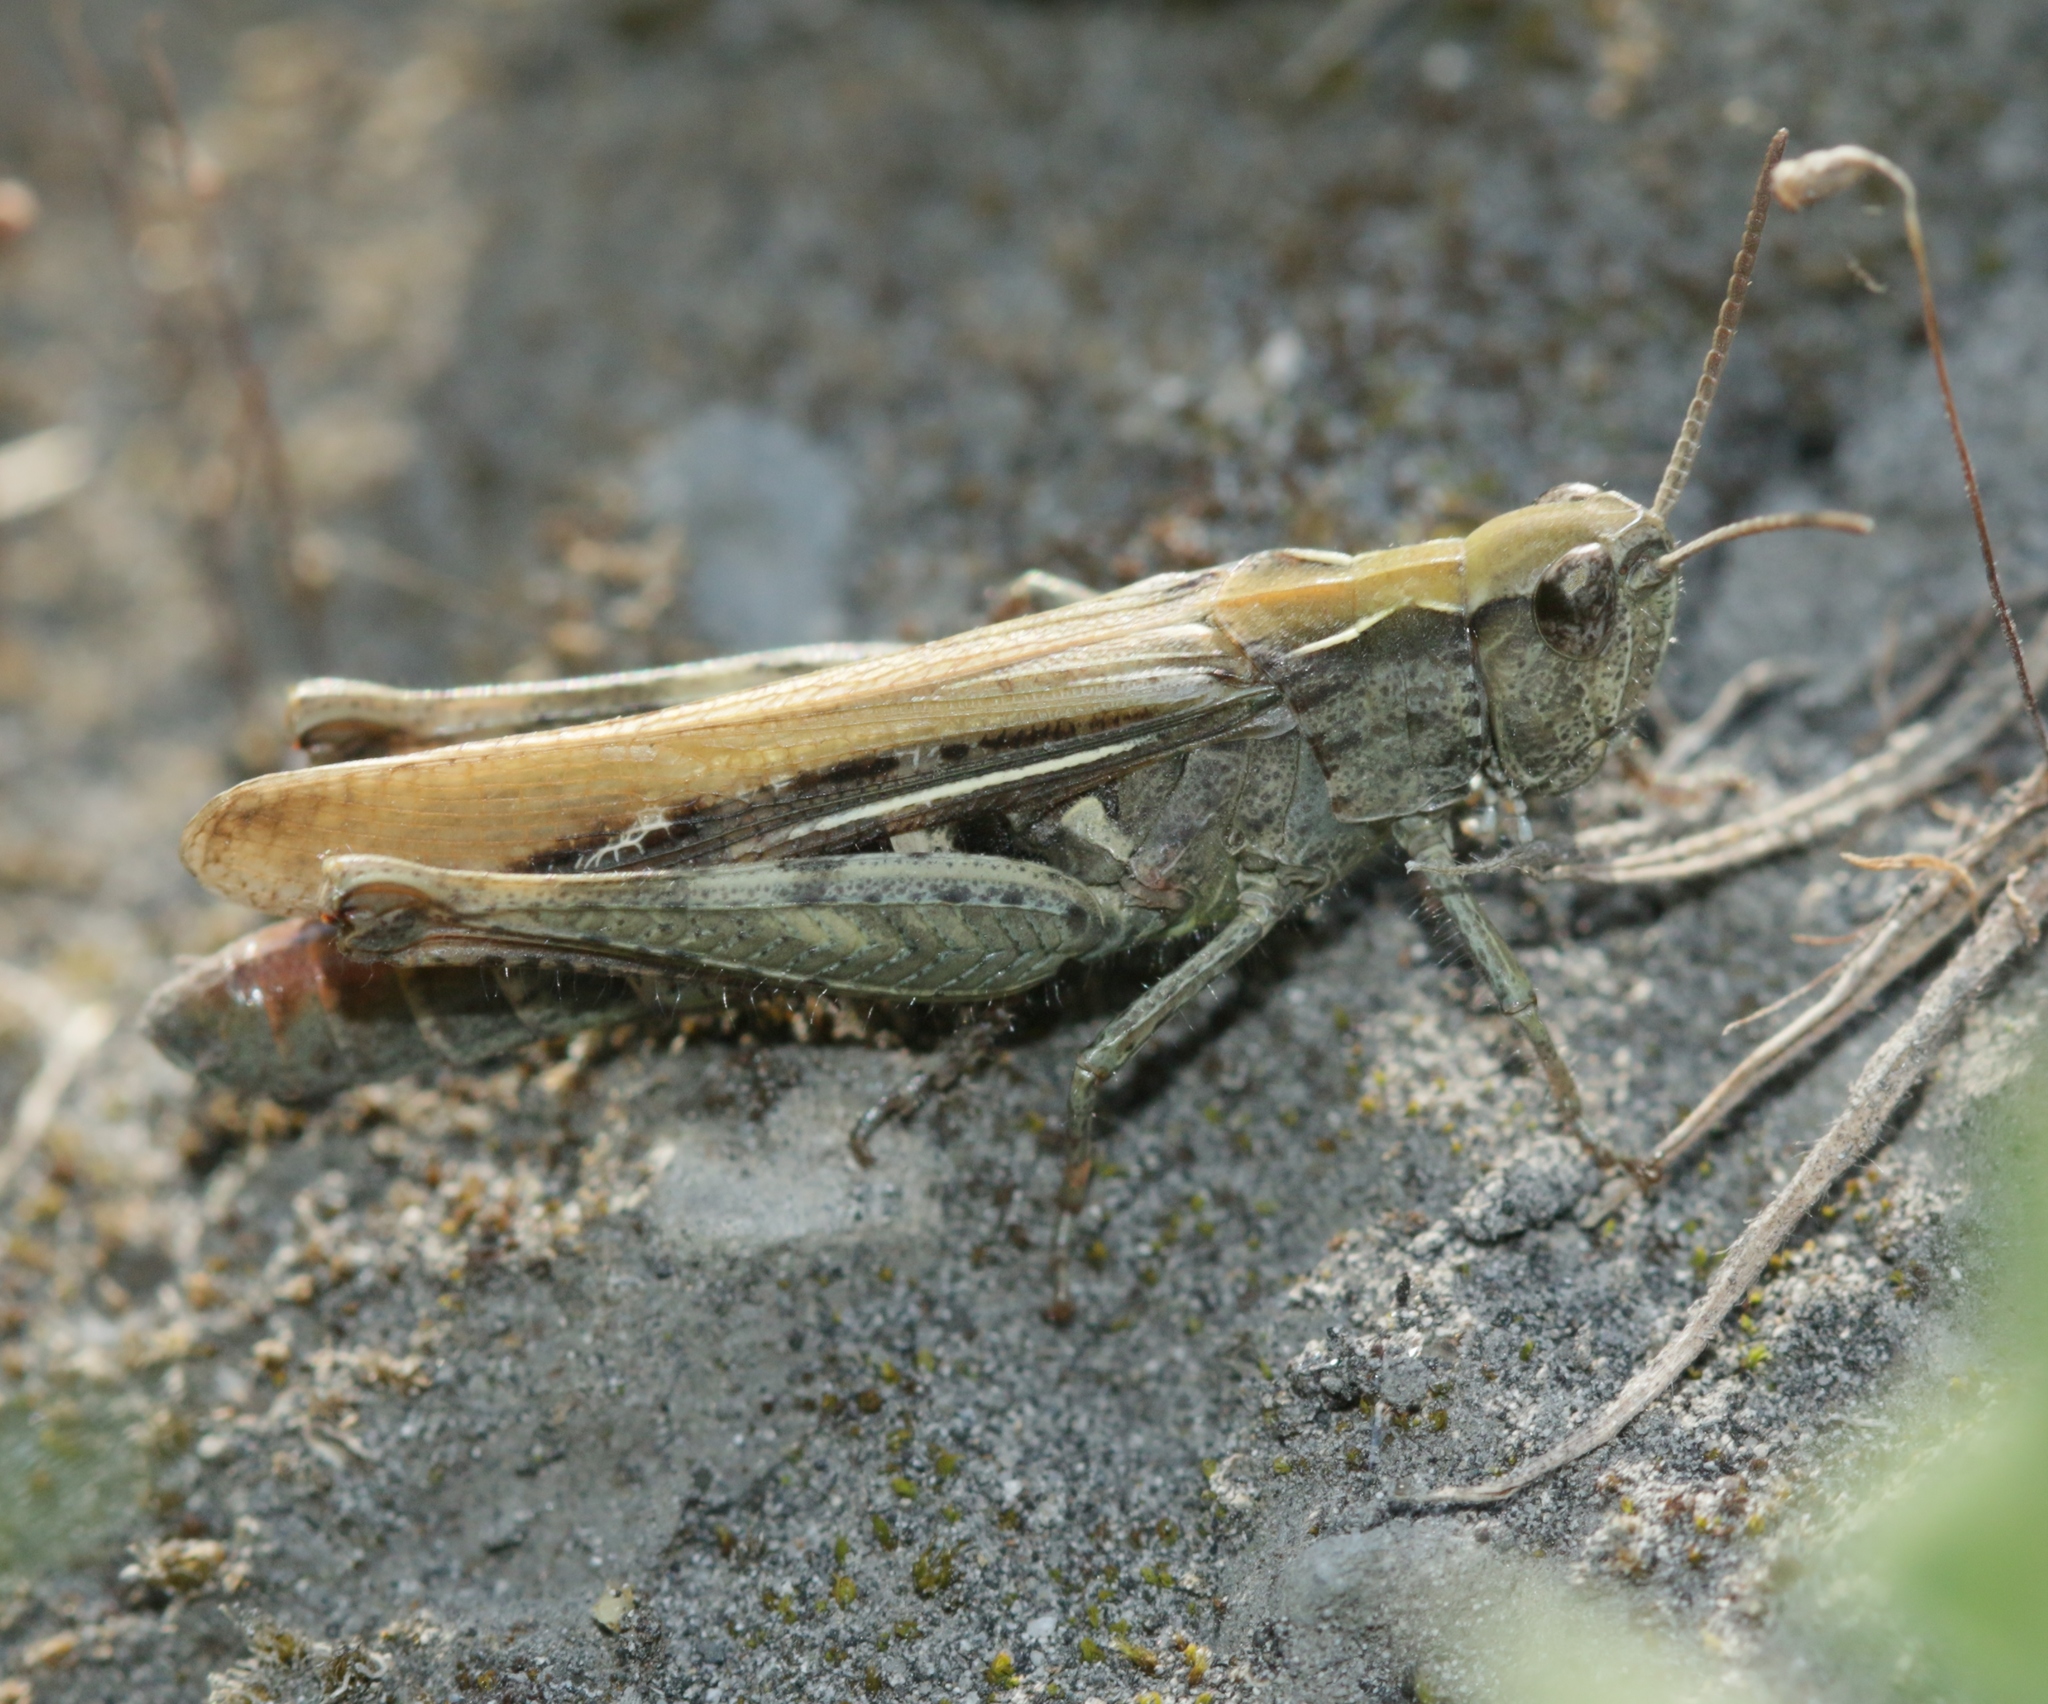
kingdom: Animalia
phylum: Arthropoda
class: Insecta
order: Orthoptera
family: Acrididae
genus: Chorthippus
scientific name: Chorthippus brunneus
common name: Field grasshopper
